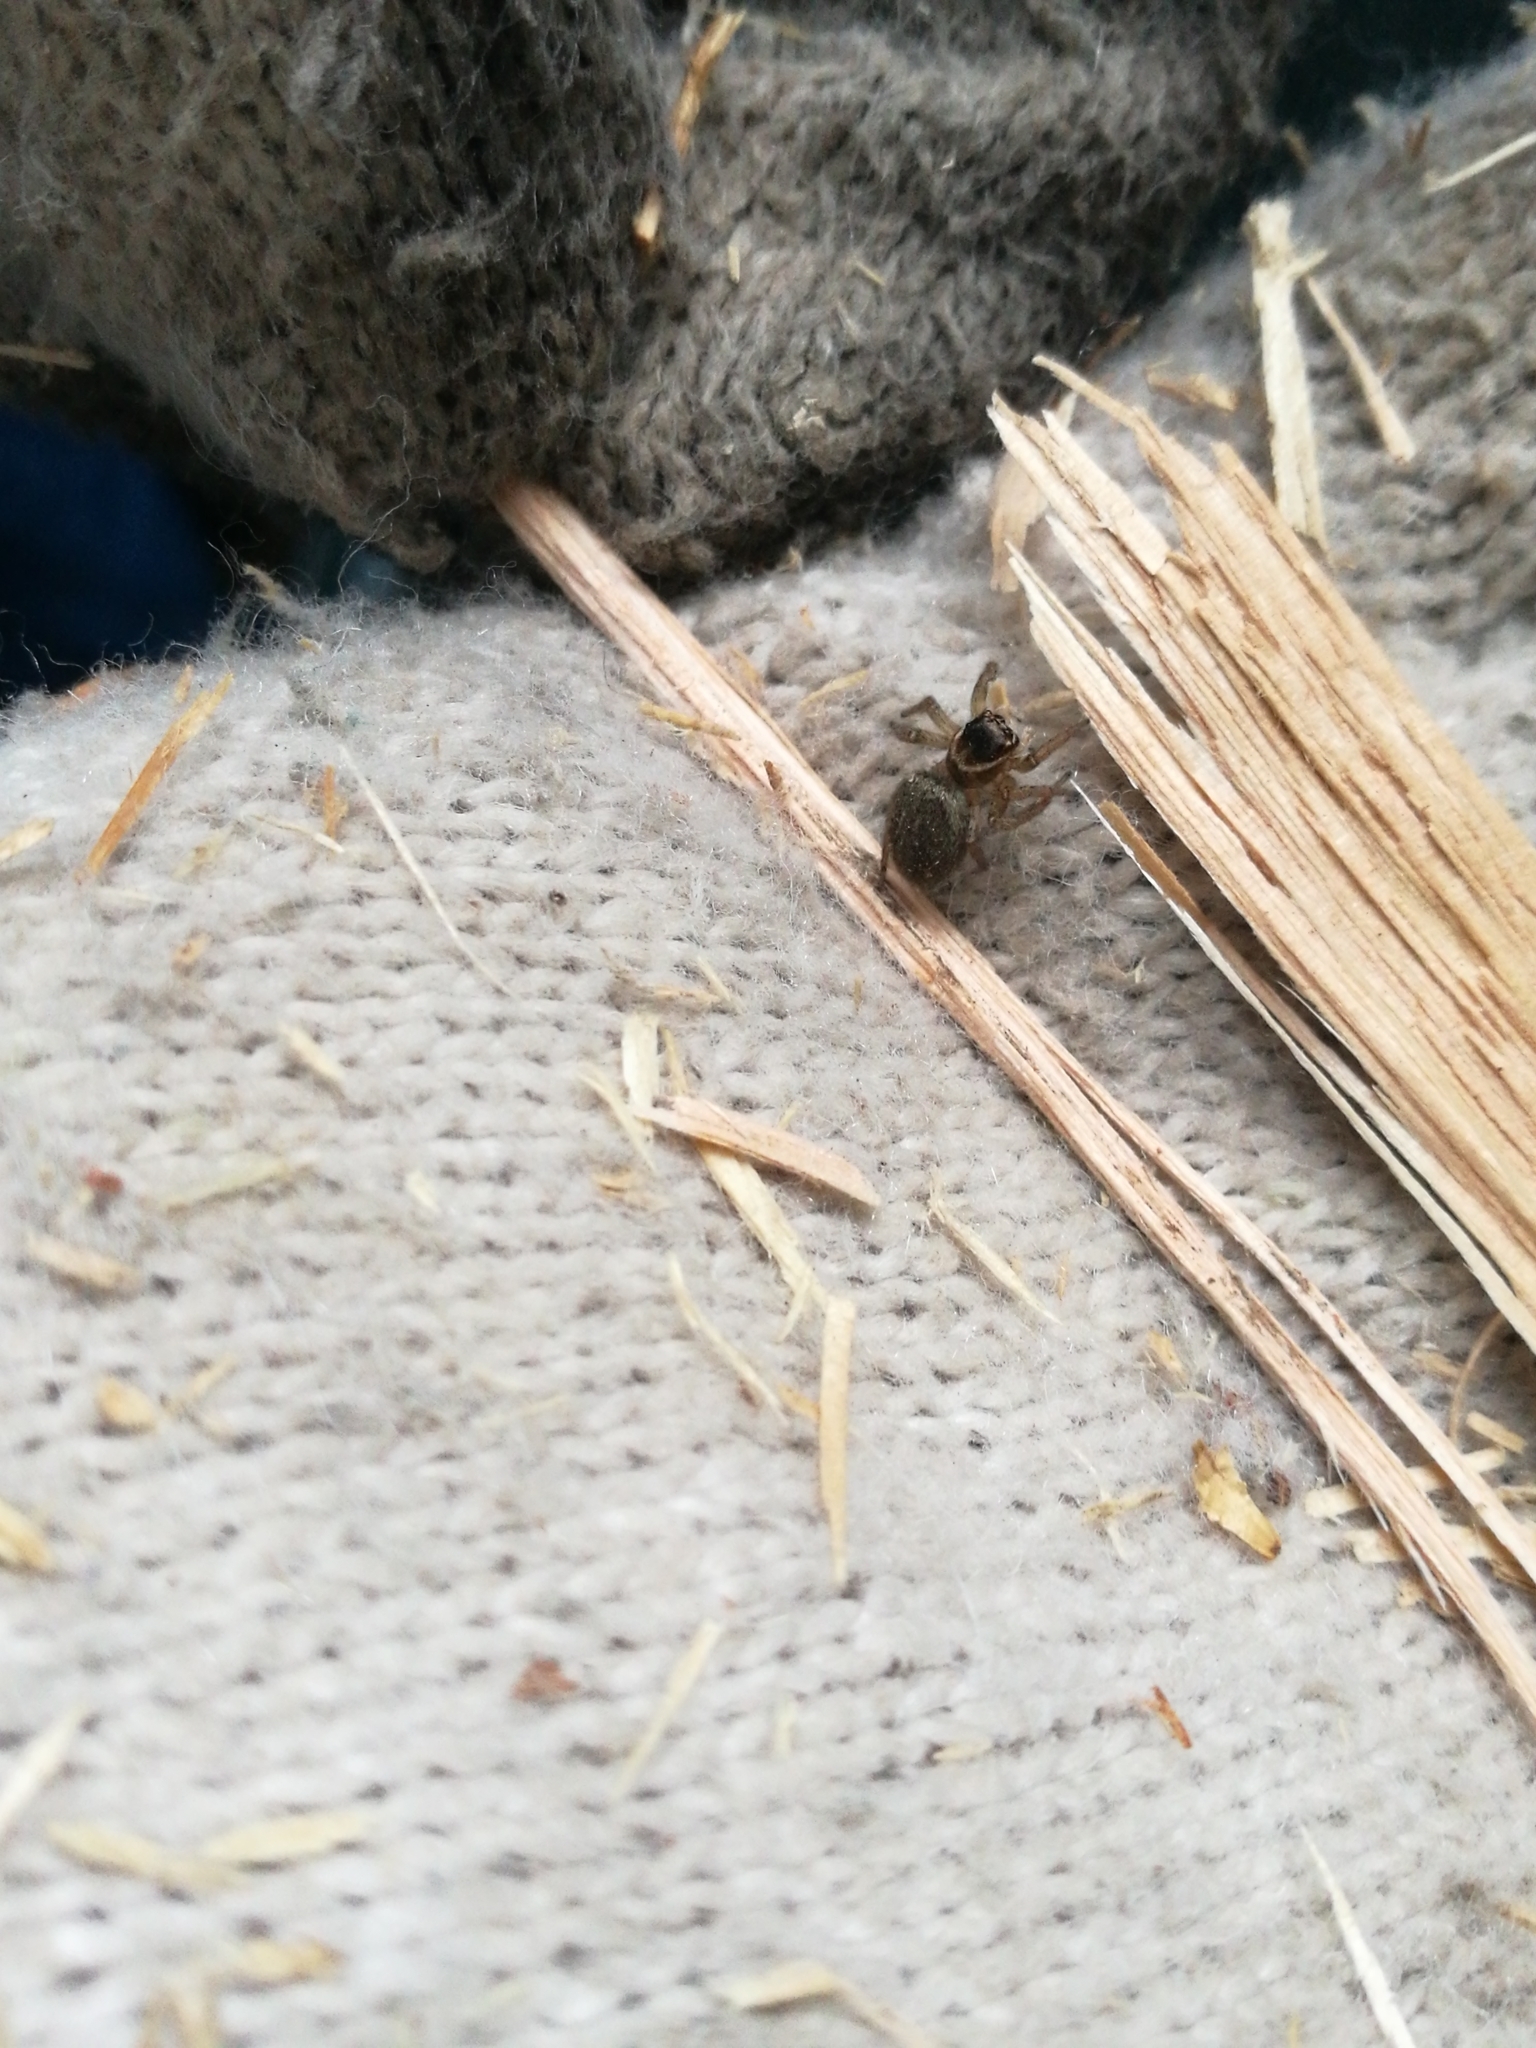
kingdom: Animalia
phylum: Arthropoda
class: Arachnida
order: Araneae
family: Salticidae
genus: Maratus
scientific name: Maratus griseus
